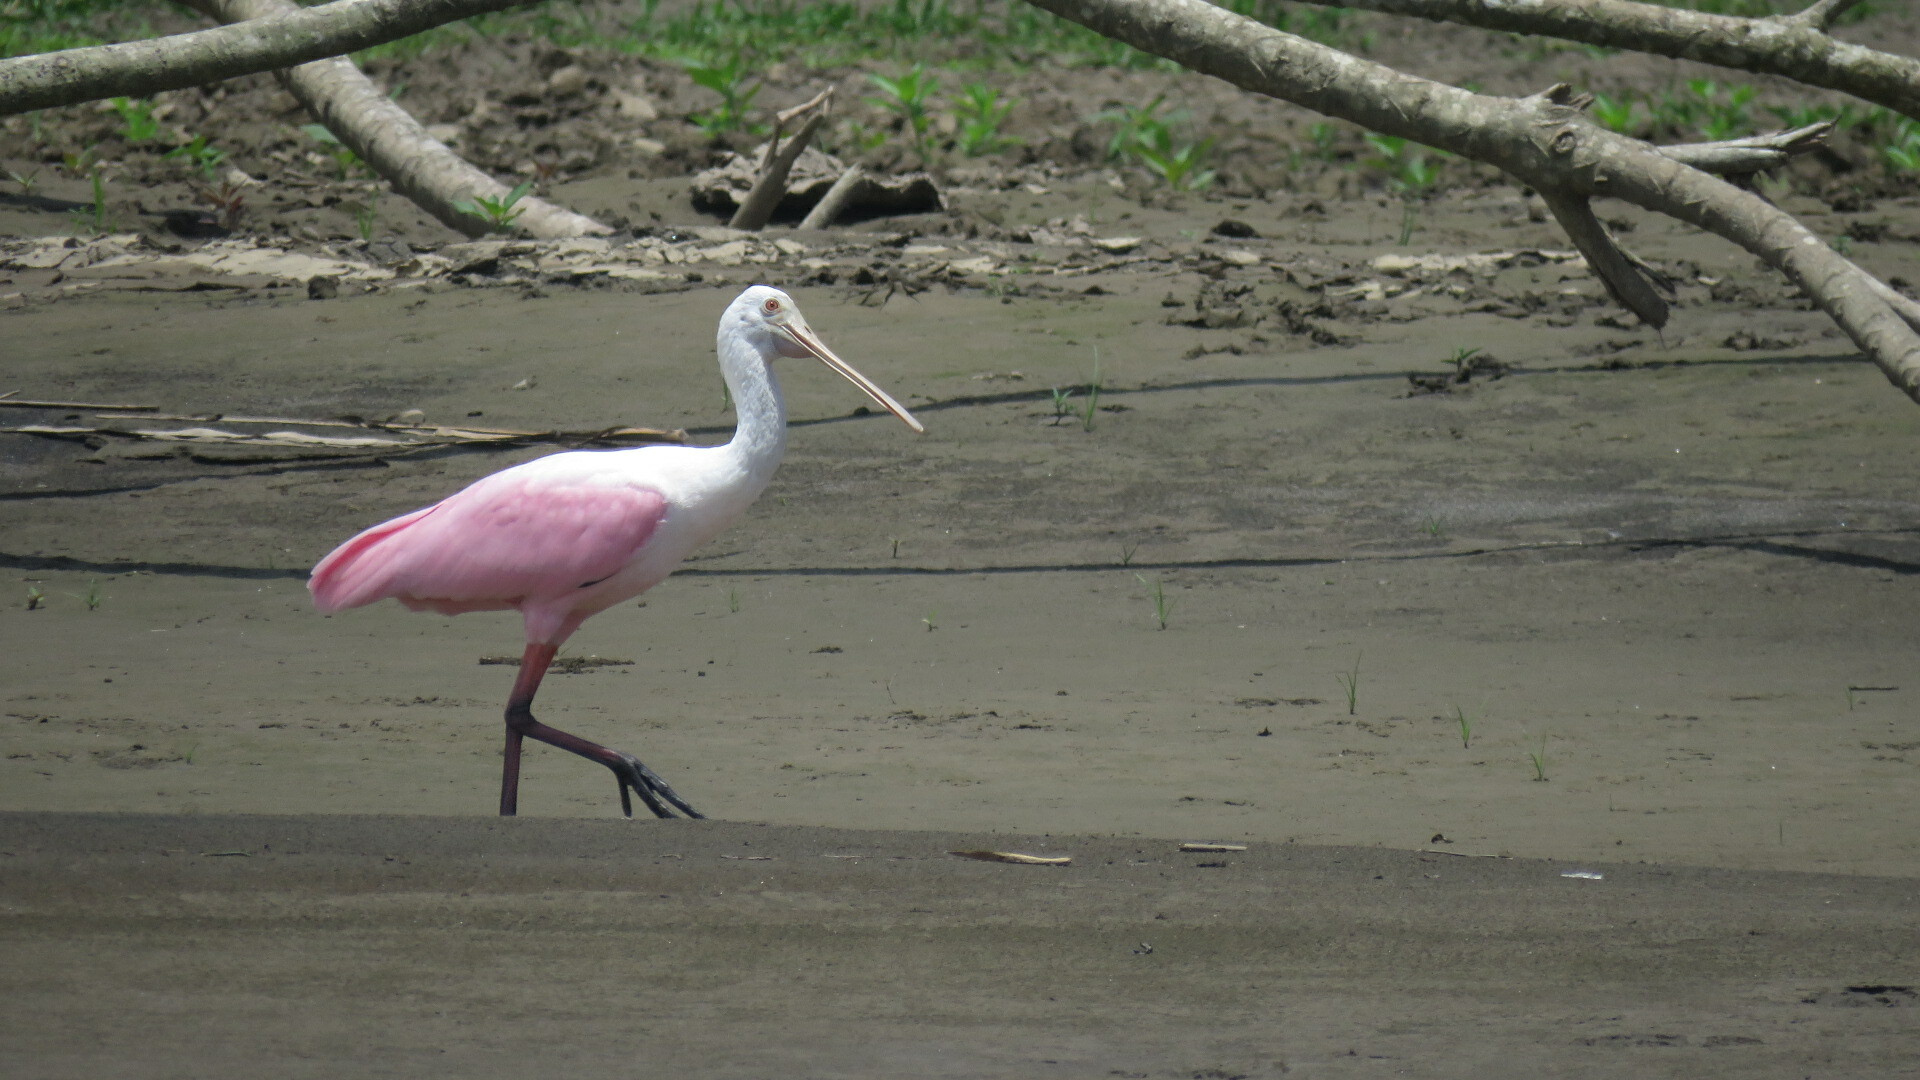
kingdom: Animalia
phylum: Chordata
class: Aves
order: Pelecaniformes
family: Threskiornithidae
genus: Platalea
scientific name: Platalea ajaja
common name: Roseate spoonbill
